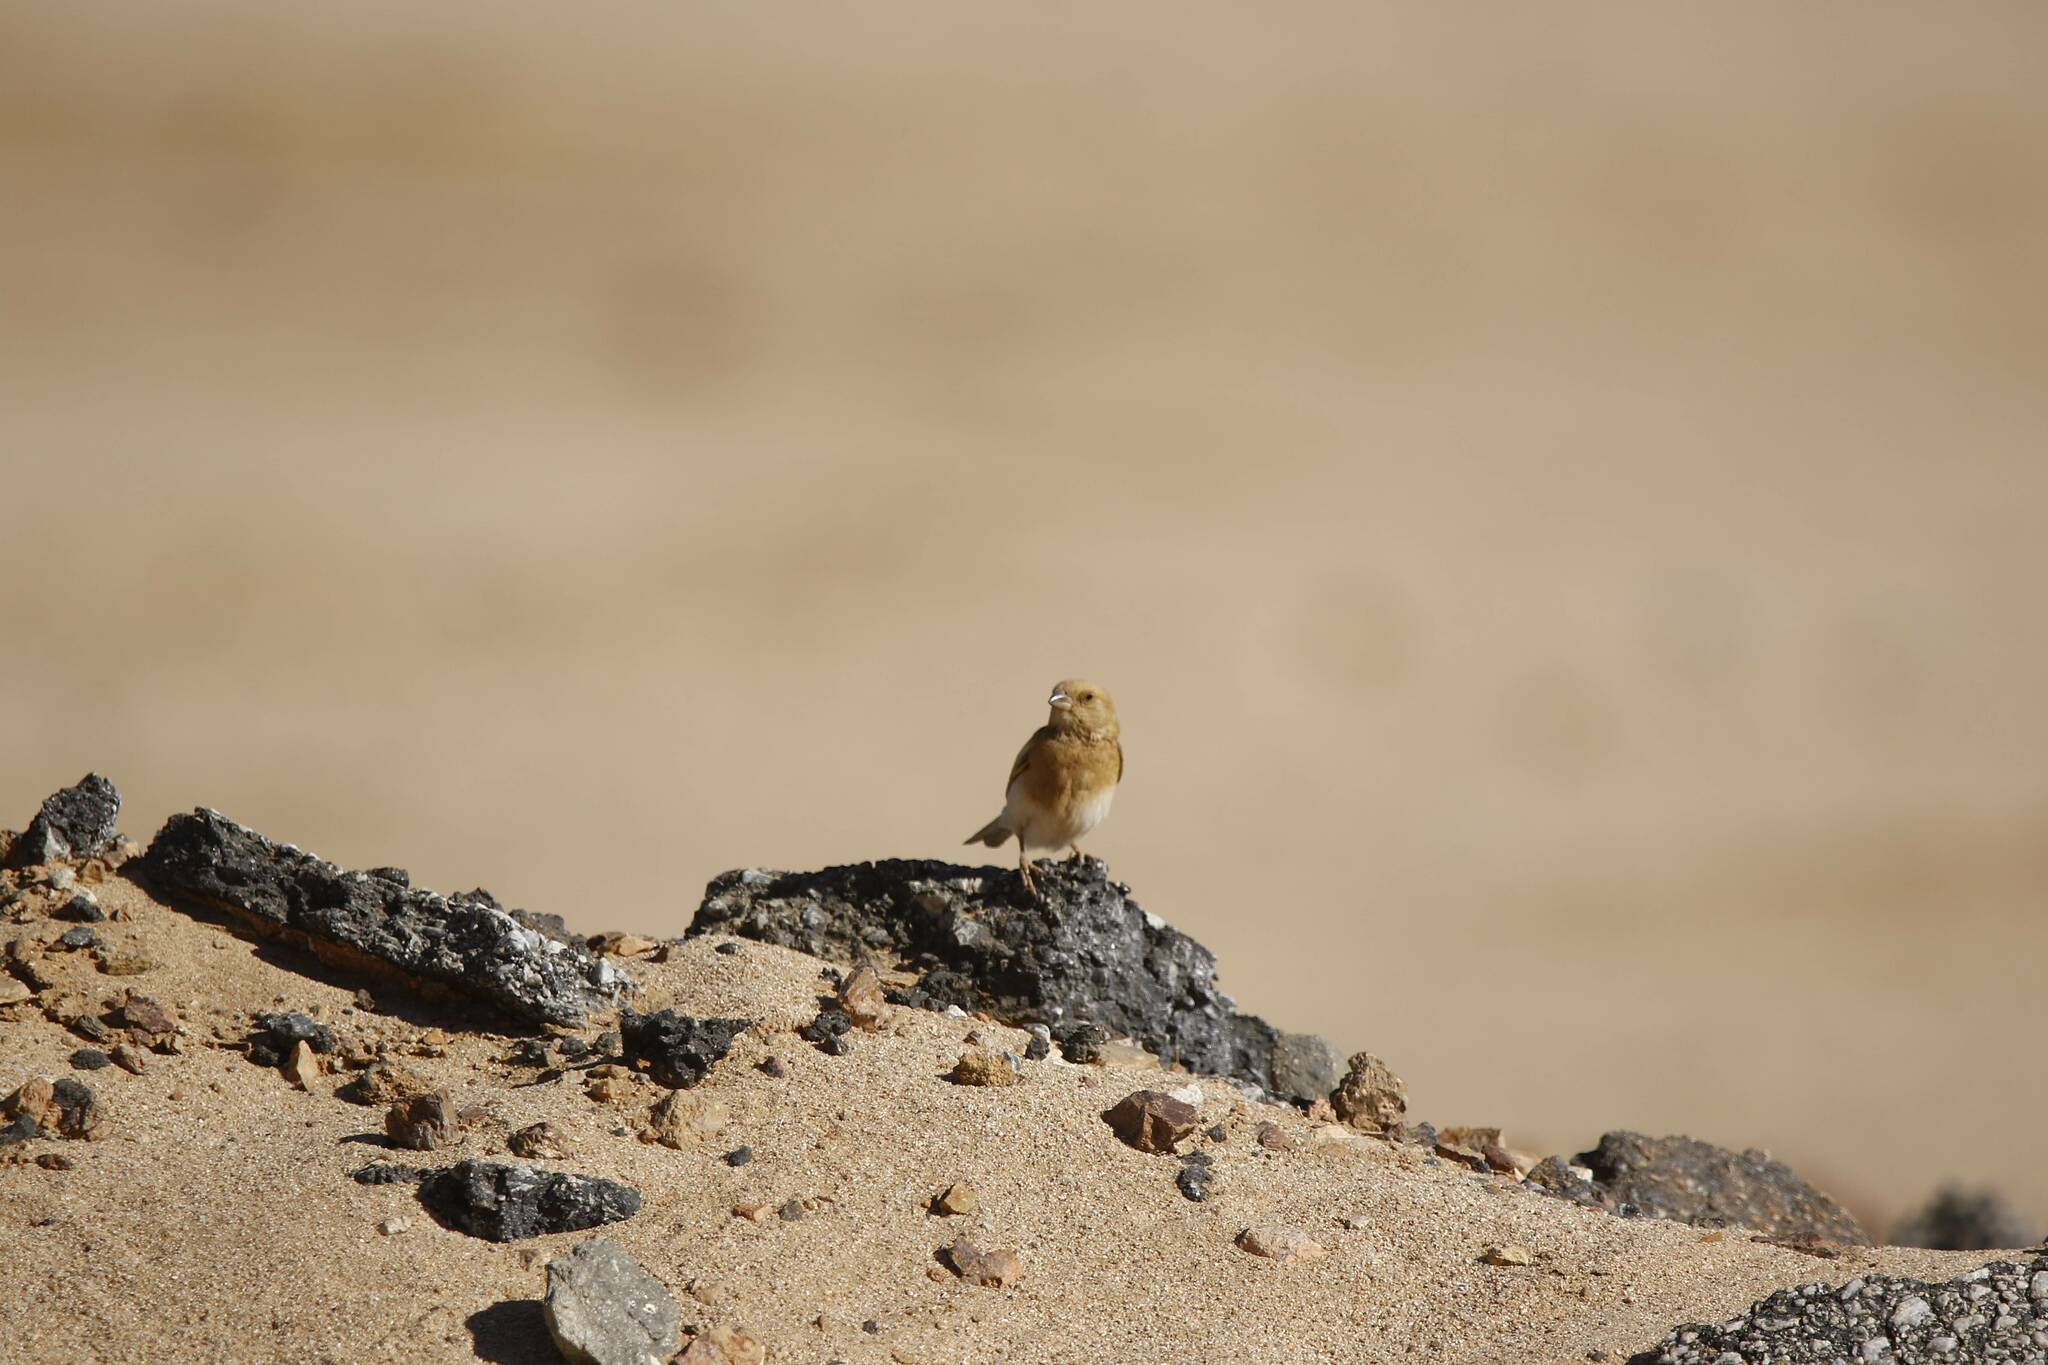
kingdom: Animalia
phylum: Chordata
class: Aves
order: Passeriformes
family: Passeridae
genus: Passer
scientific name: Passer simplex
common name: Desert sparrow
